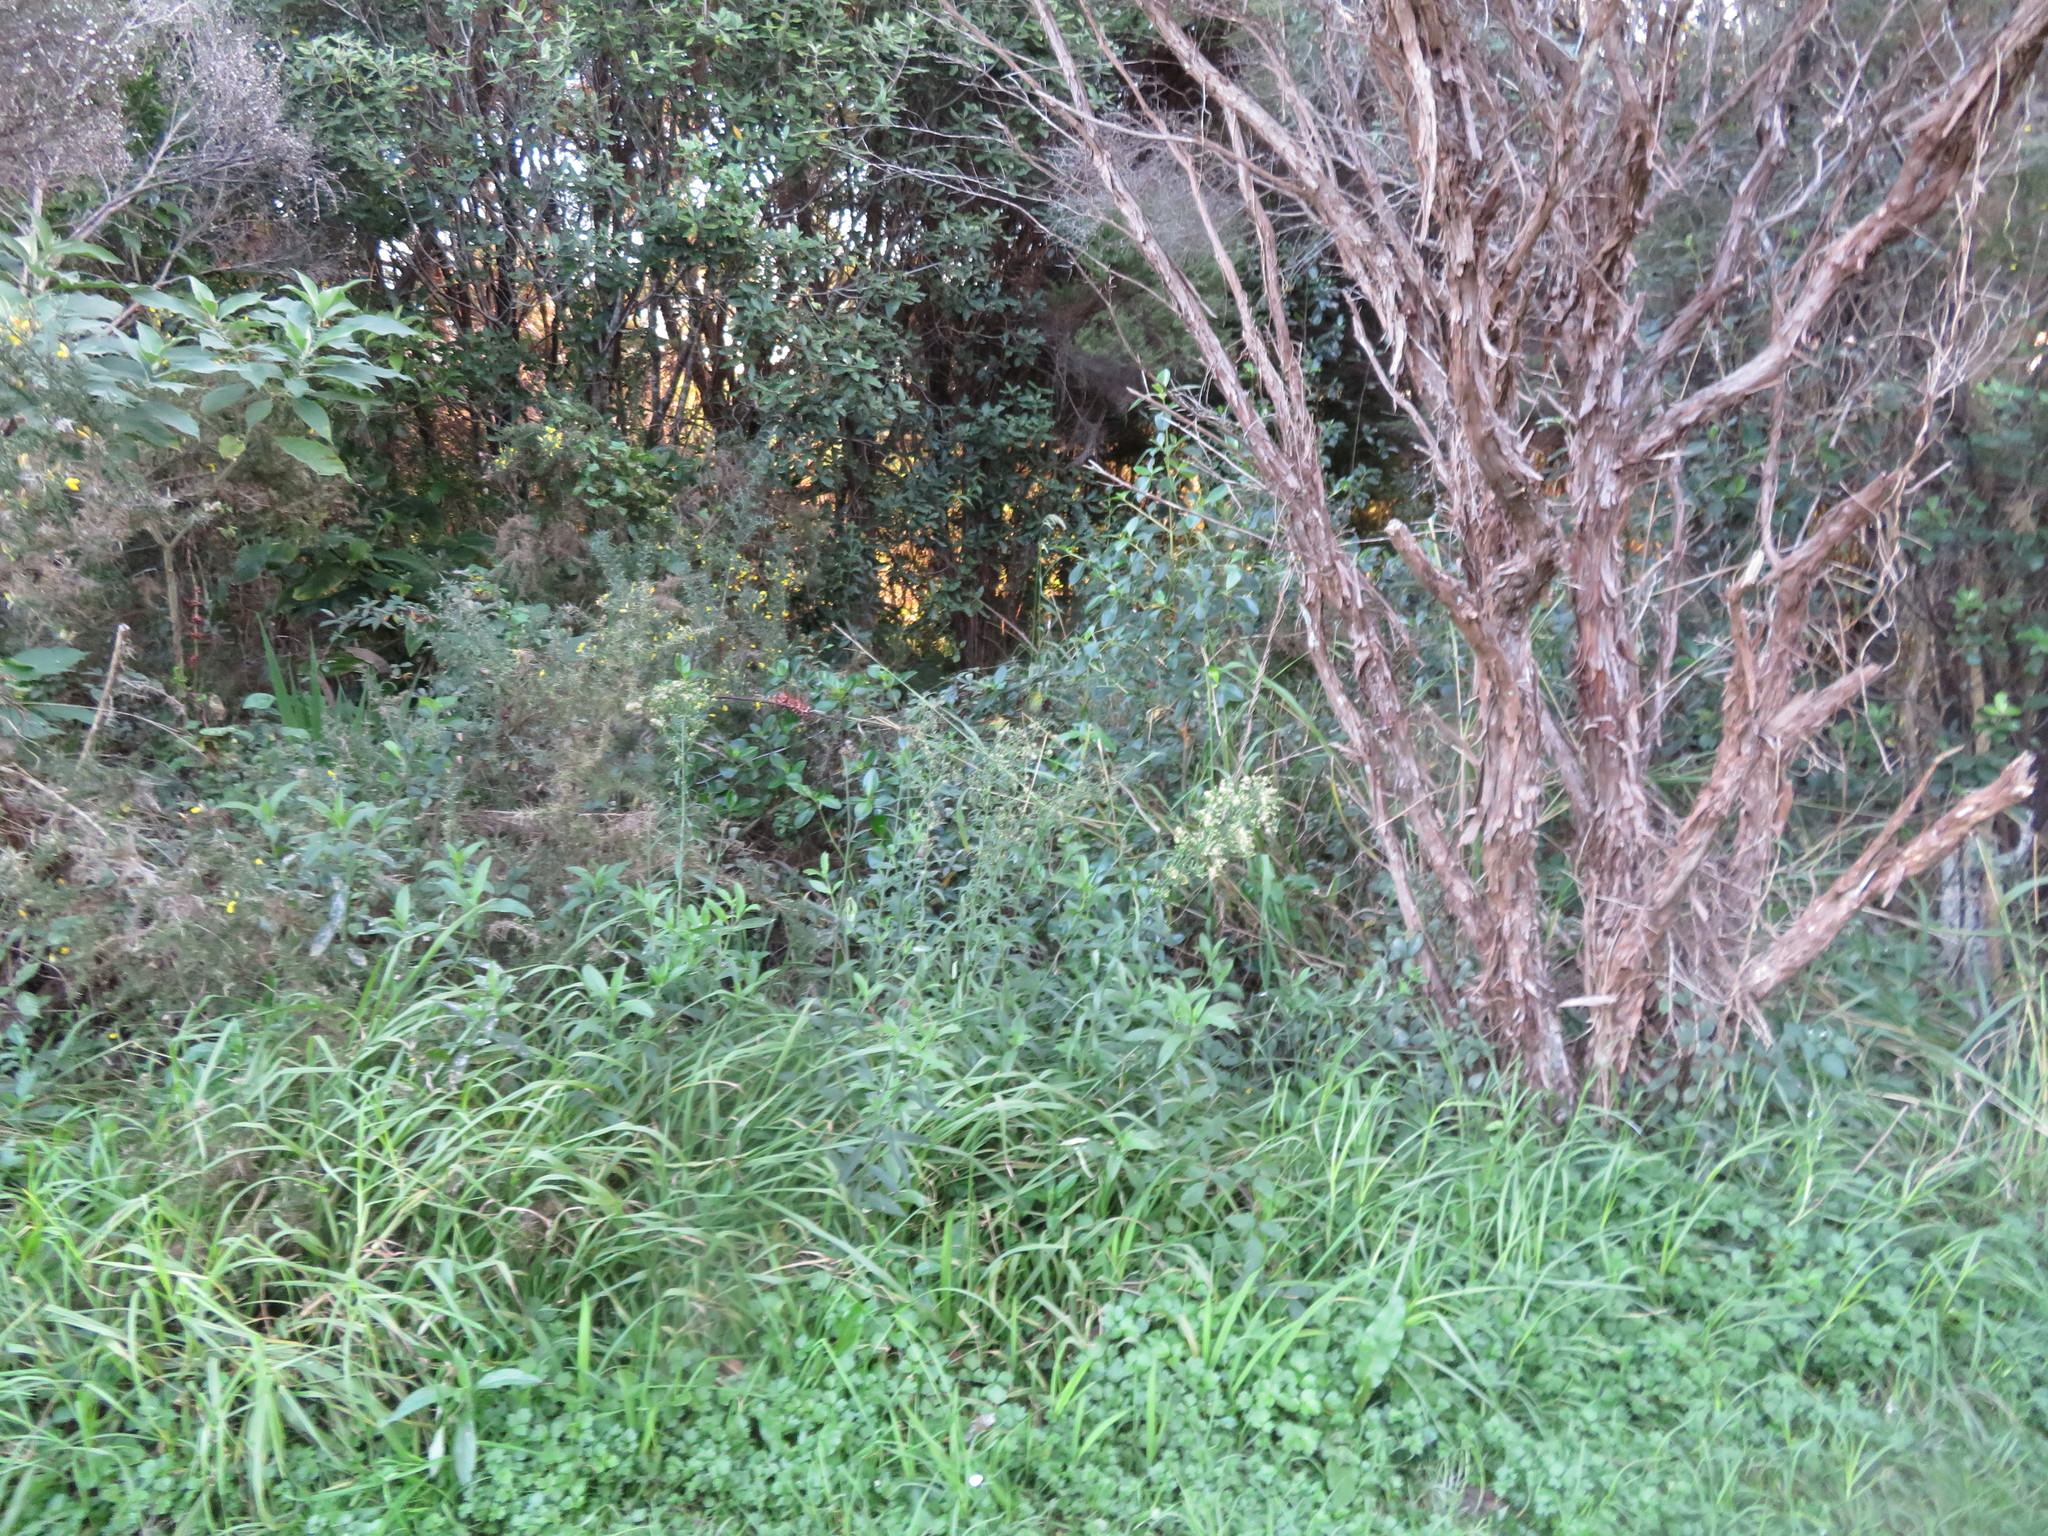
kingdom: Plantae
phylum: Tracheophyta
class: Magnoliopsida
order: Solanales
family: Solanaceae
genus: Solanum
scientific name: Solanum mauritianum
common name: Earleaf nightshade
